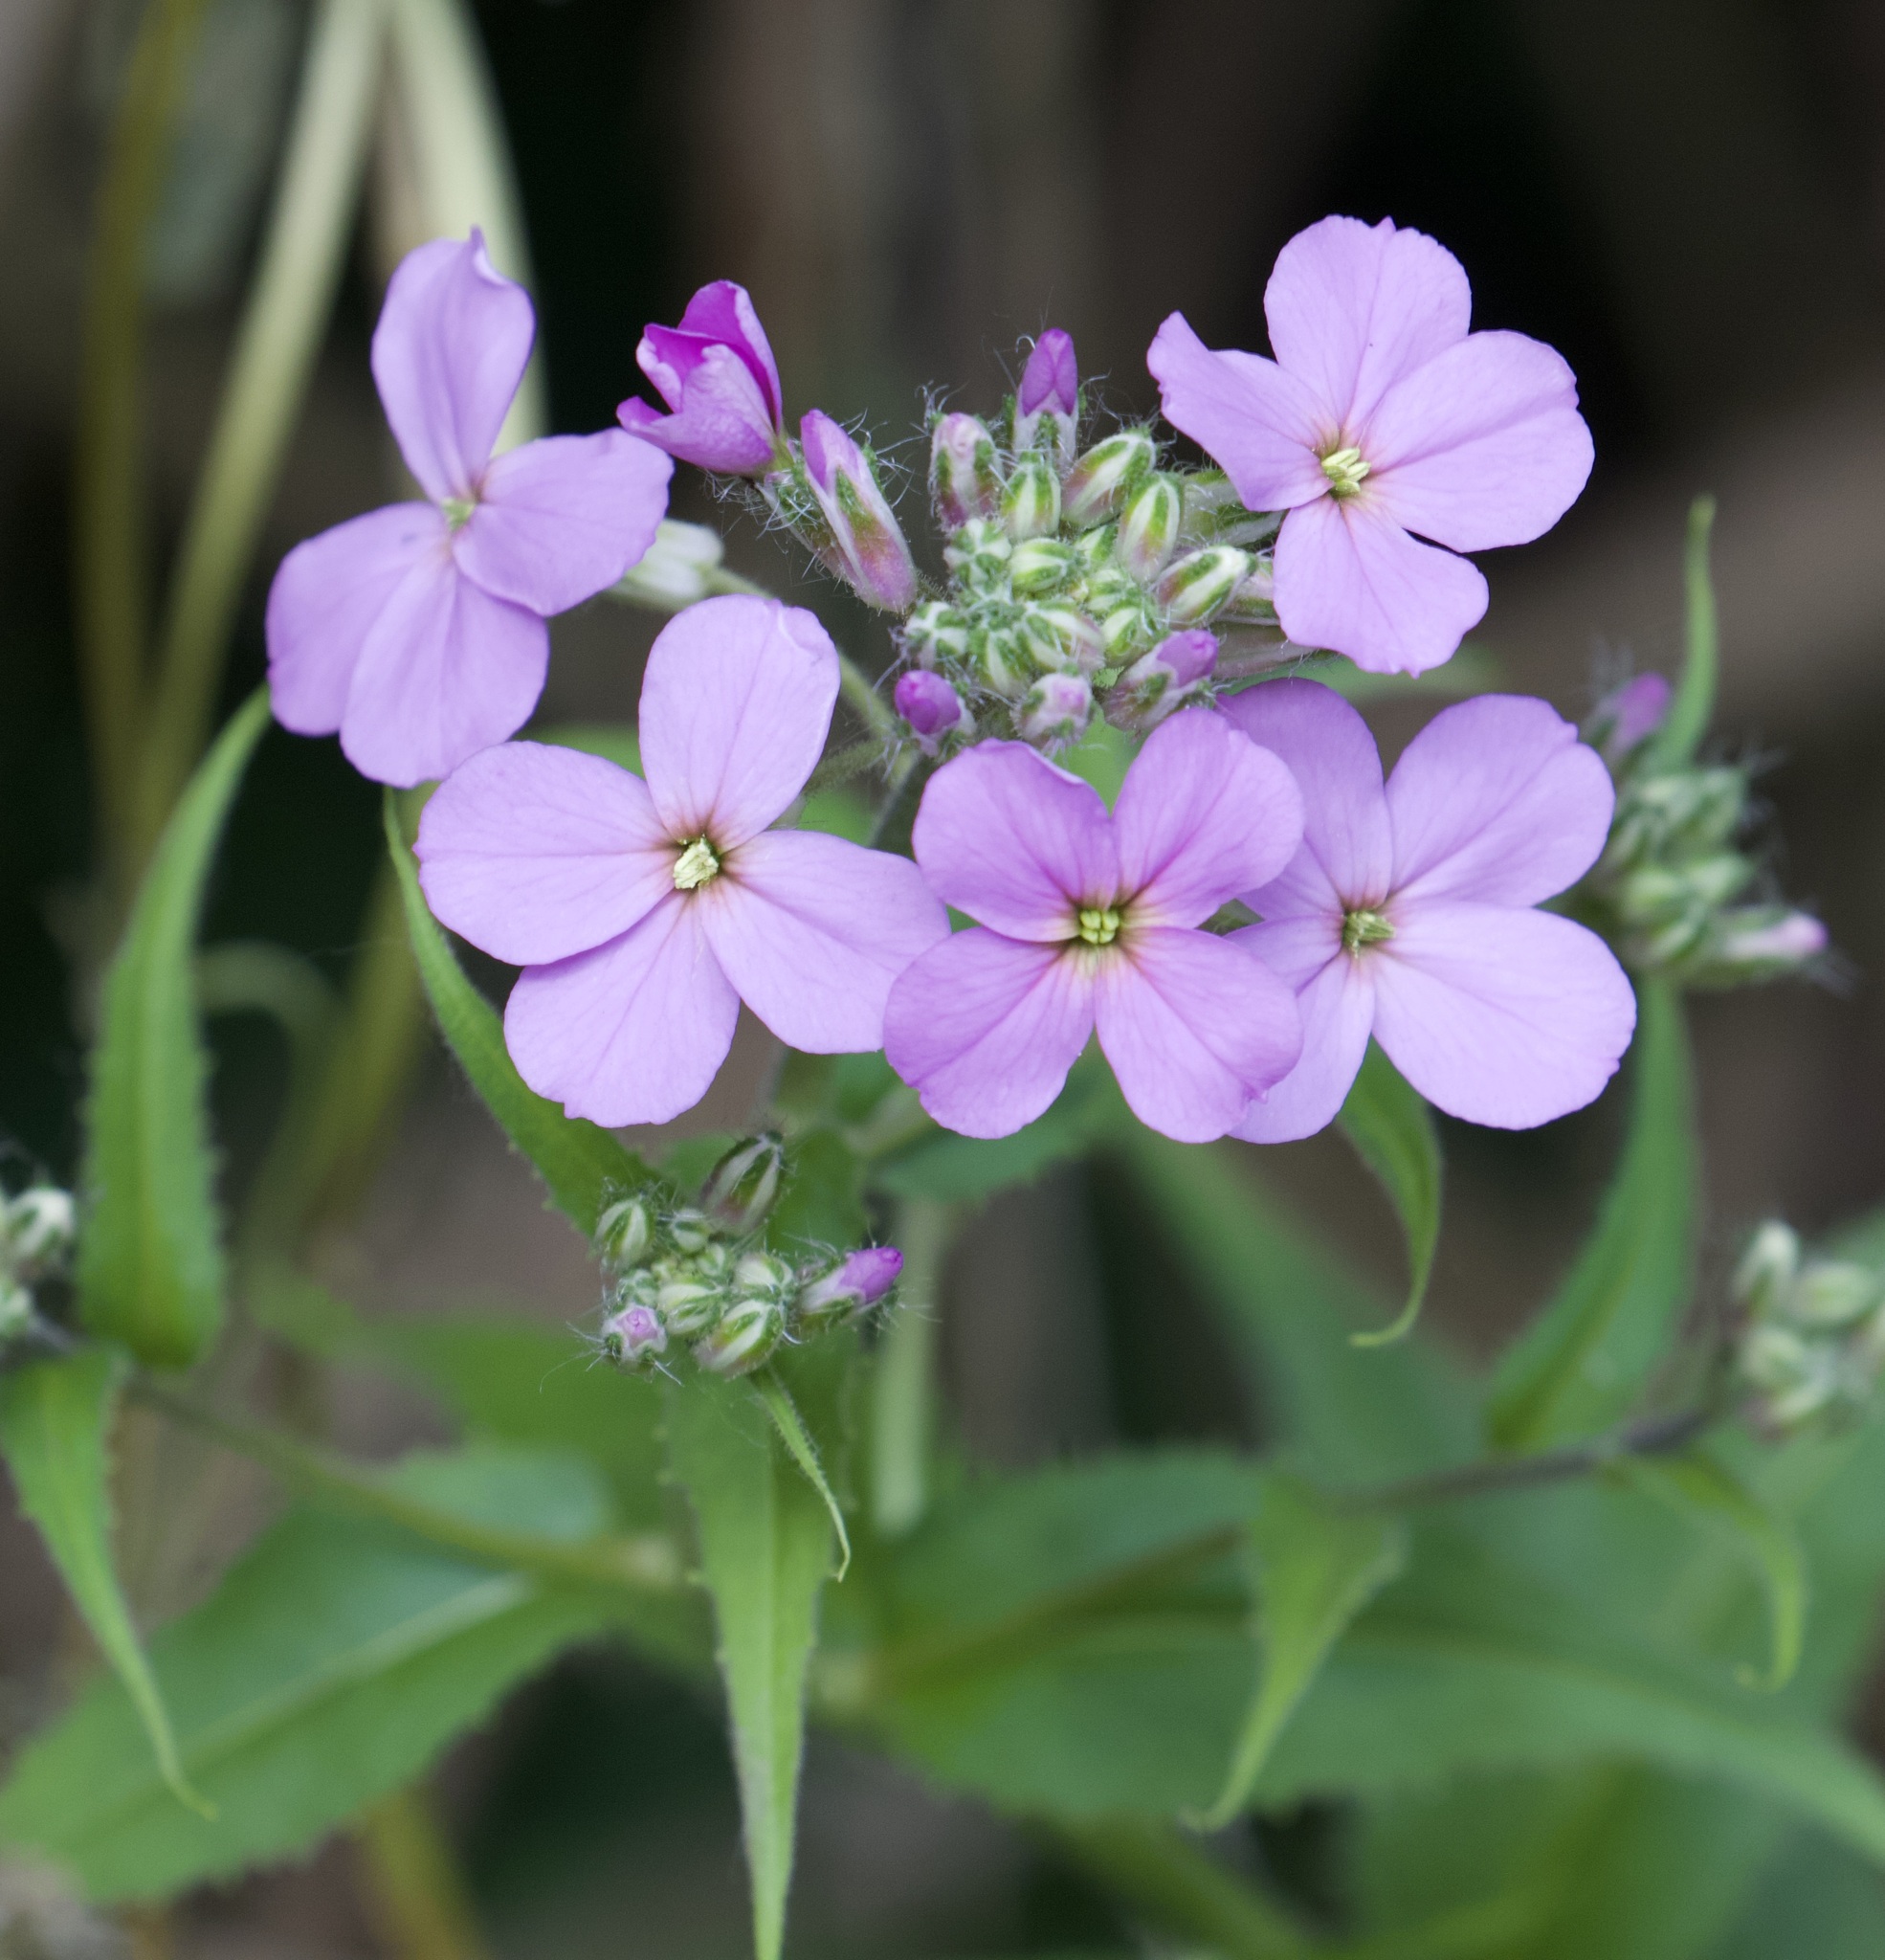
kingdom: Plantae
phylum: Tracheophyta
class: Magnoliopsida
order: Brassicales
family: Brassicaceae
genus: Hesperis
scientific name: Hesperis matronalis
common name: Dame's-violet
